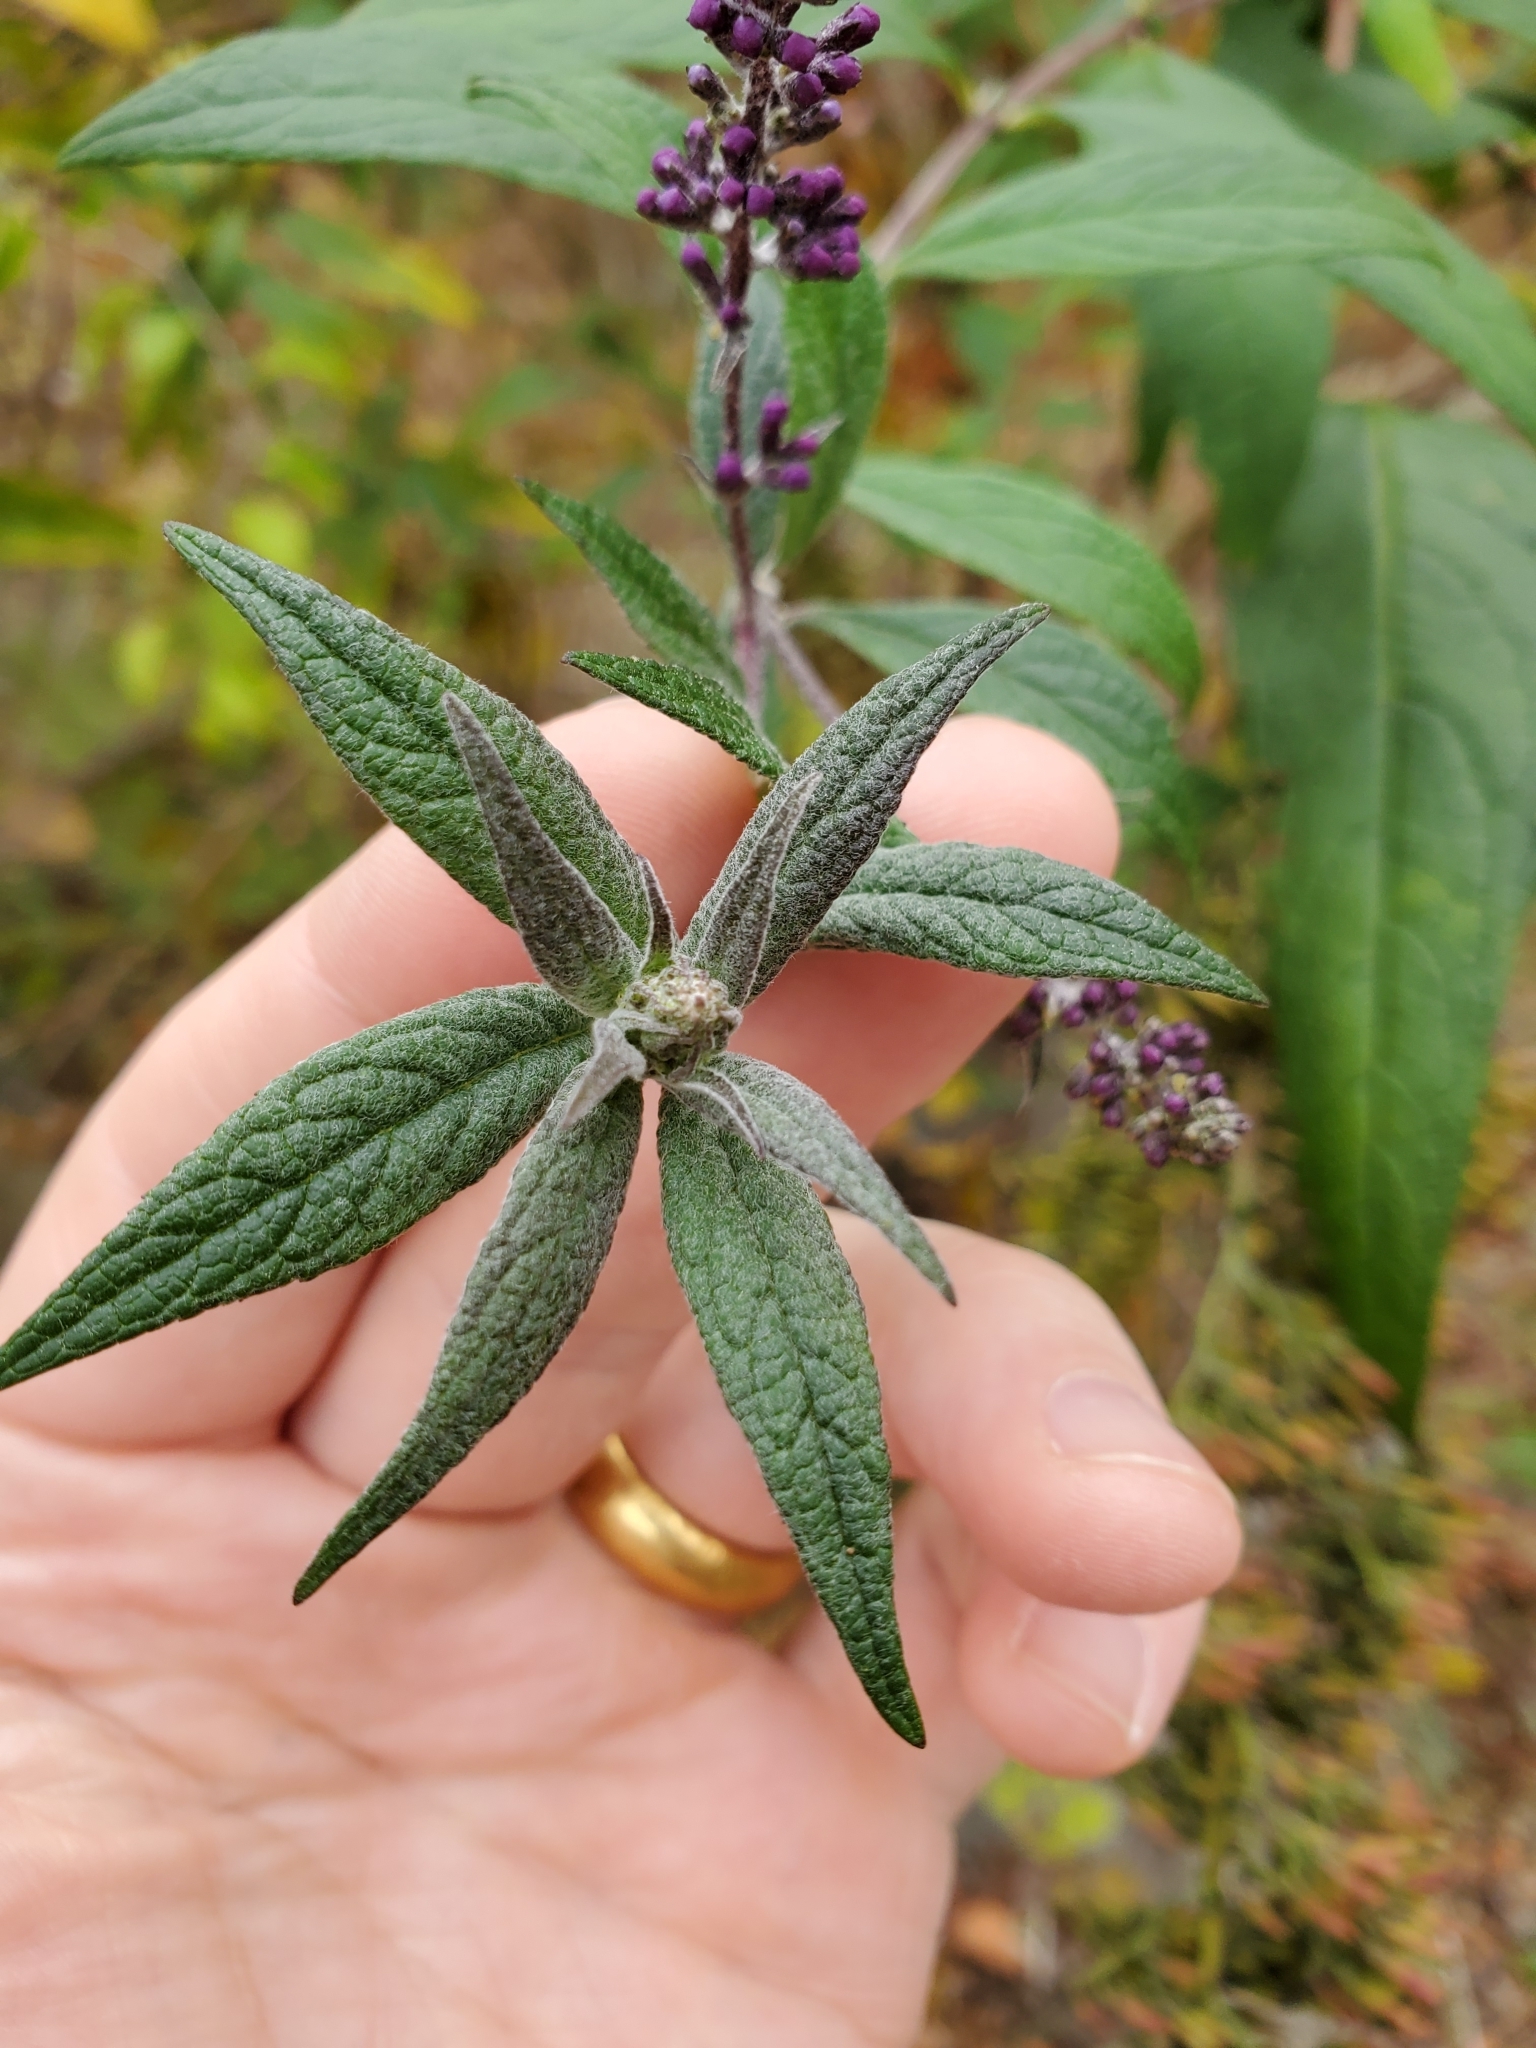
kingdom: Plantae
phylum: Tracheophyta
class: Magnoliopsida
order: Lamiales
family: Scrophulariaceae
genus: Buddleja
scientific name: Buddleja davidii
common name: Butterfly-bush
